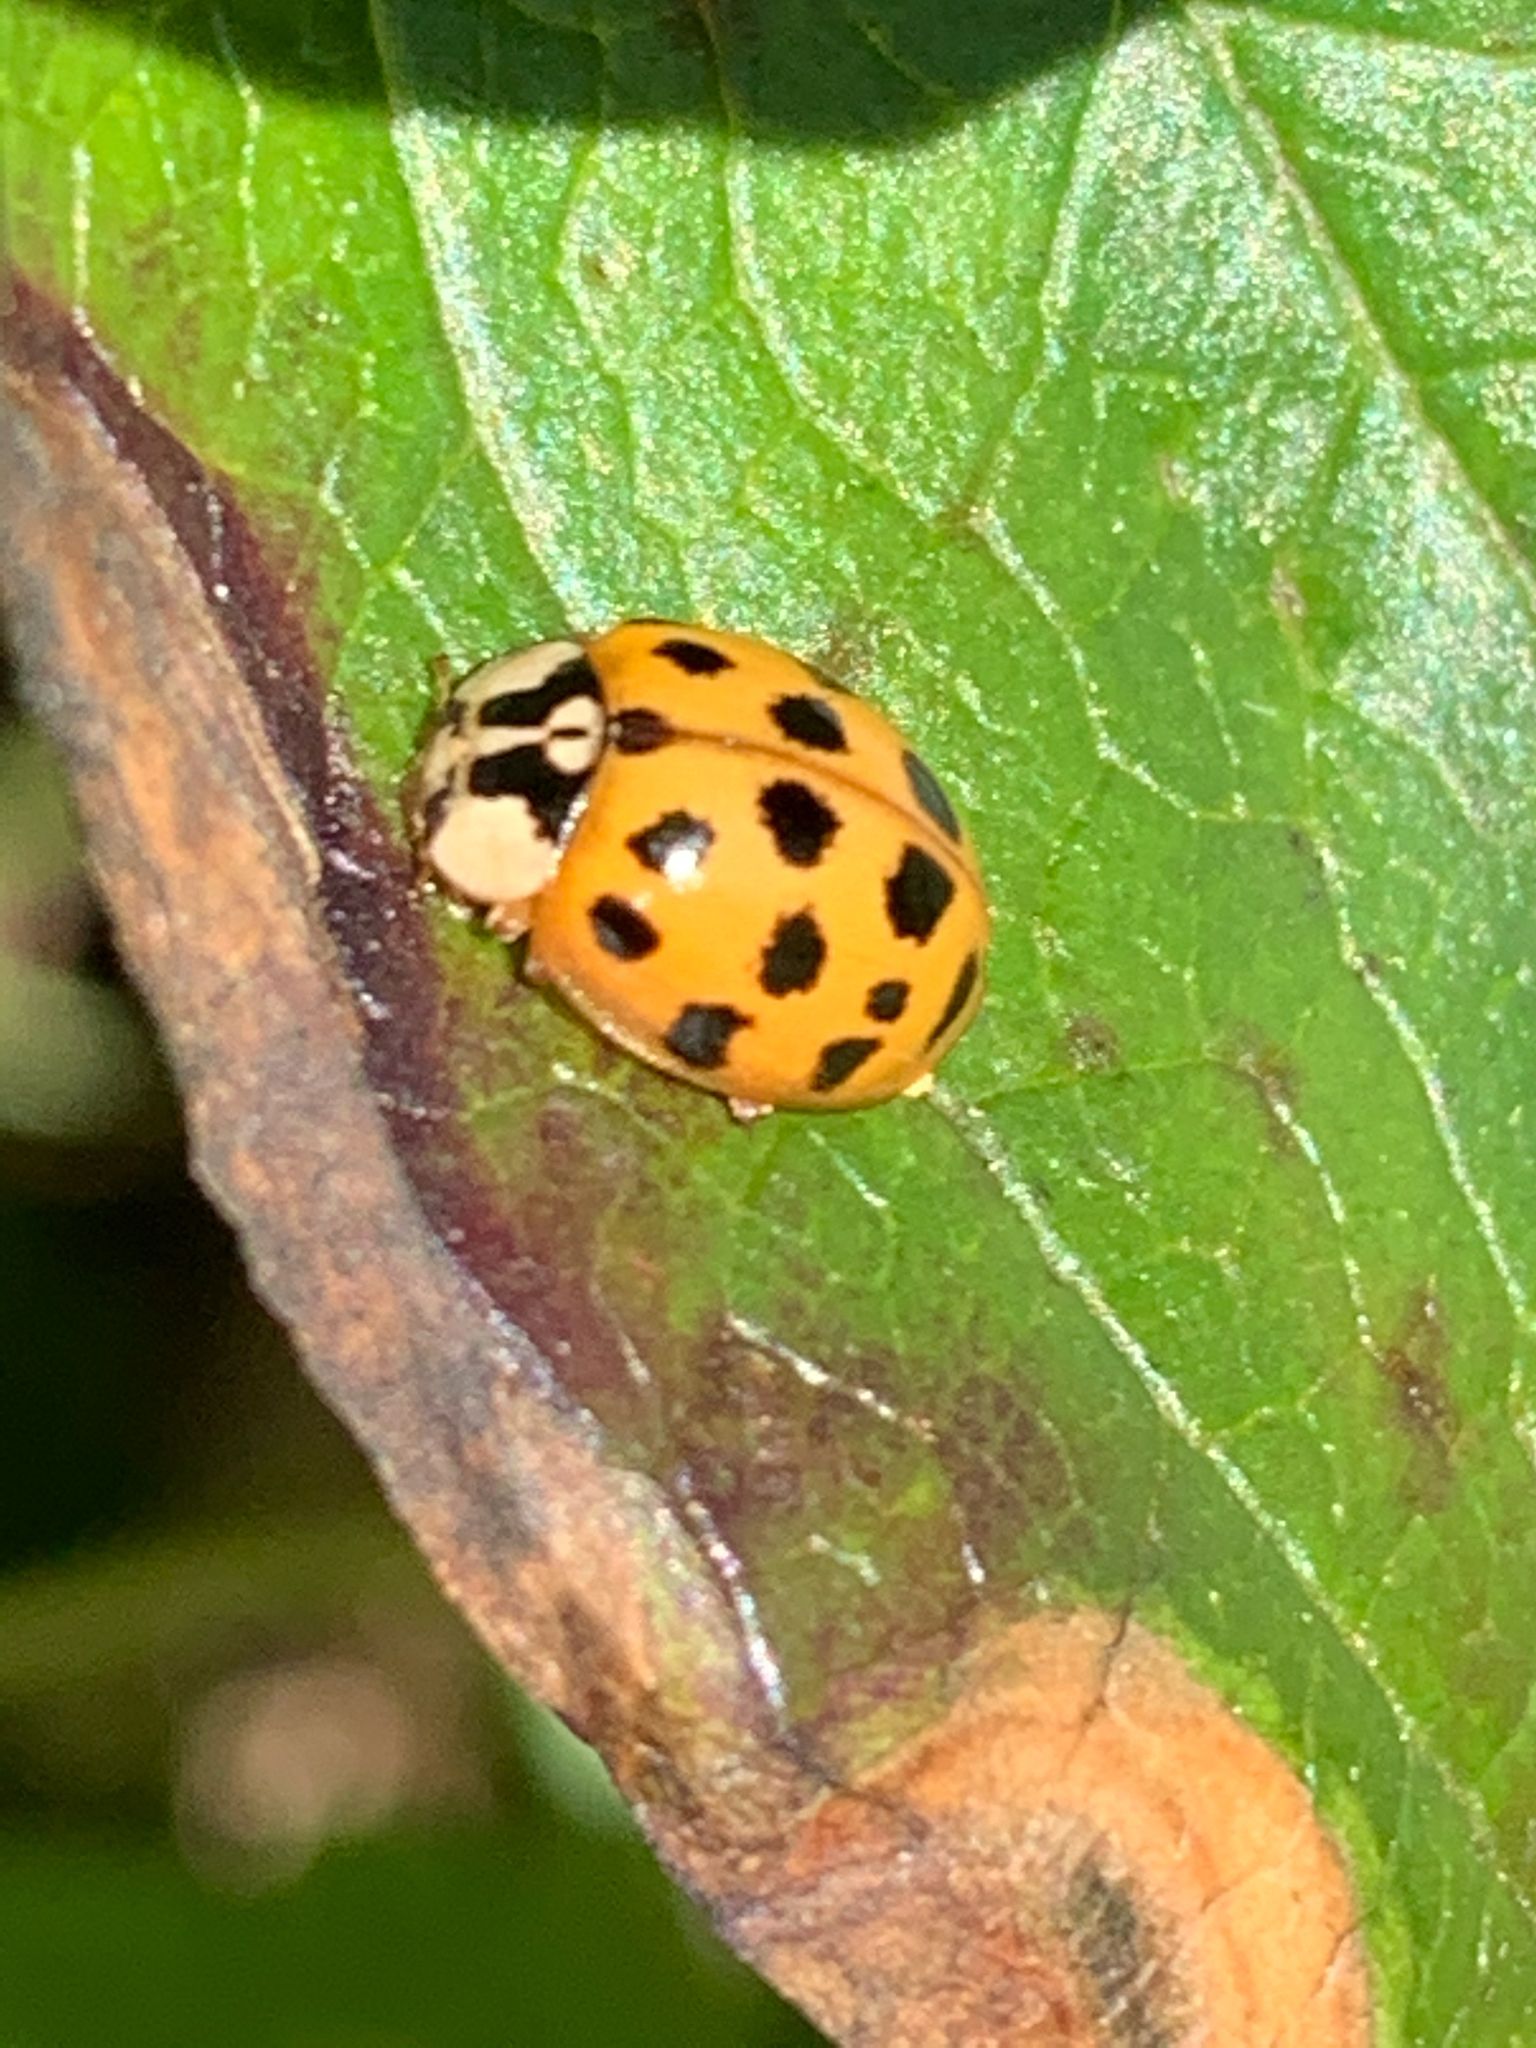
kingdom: Animalia
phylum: Arthropoda
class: Insecta
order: Coleoptera
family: Coccinellidae
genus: Harmonia
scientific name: Harmonia axyridis
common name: Harlequin ladybird
